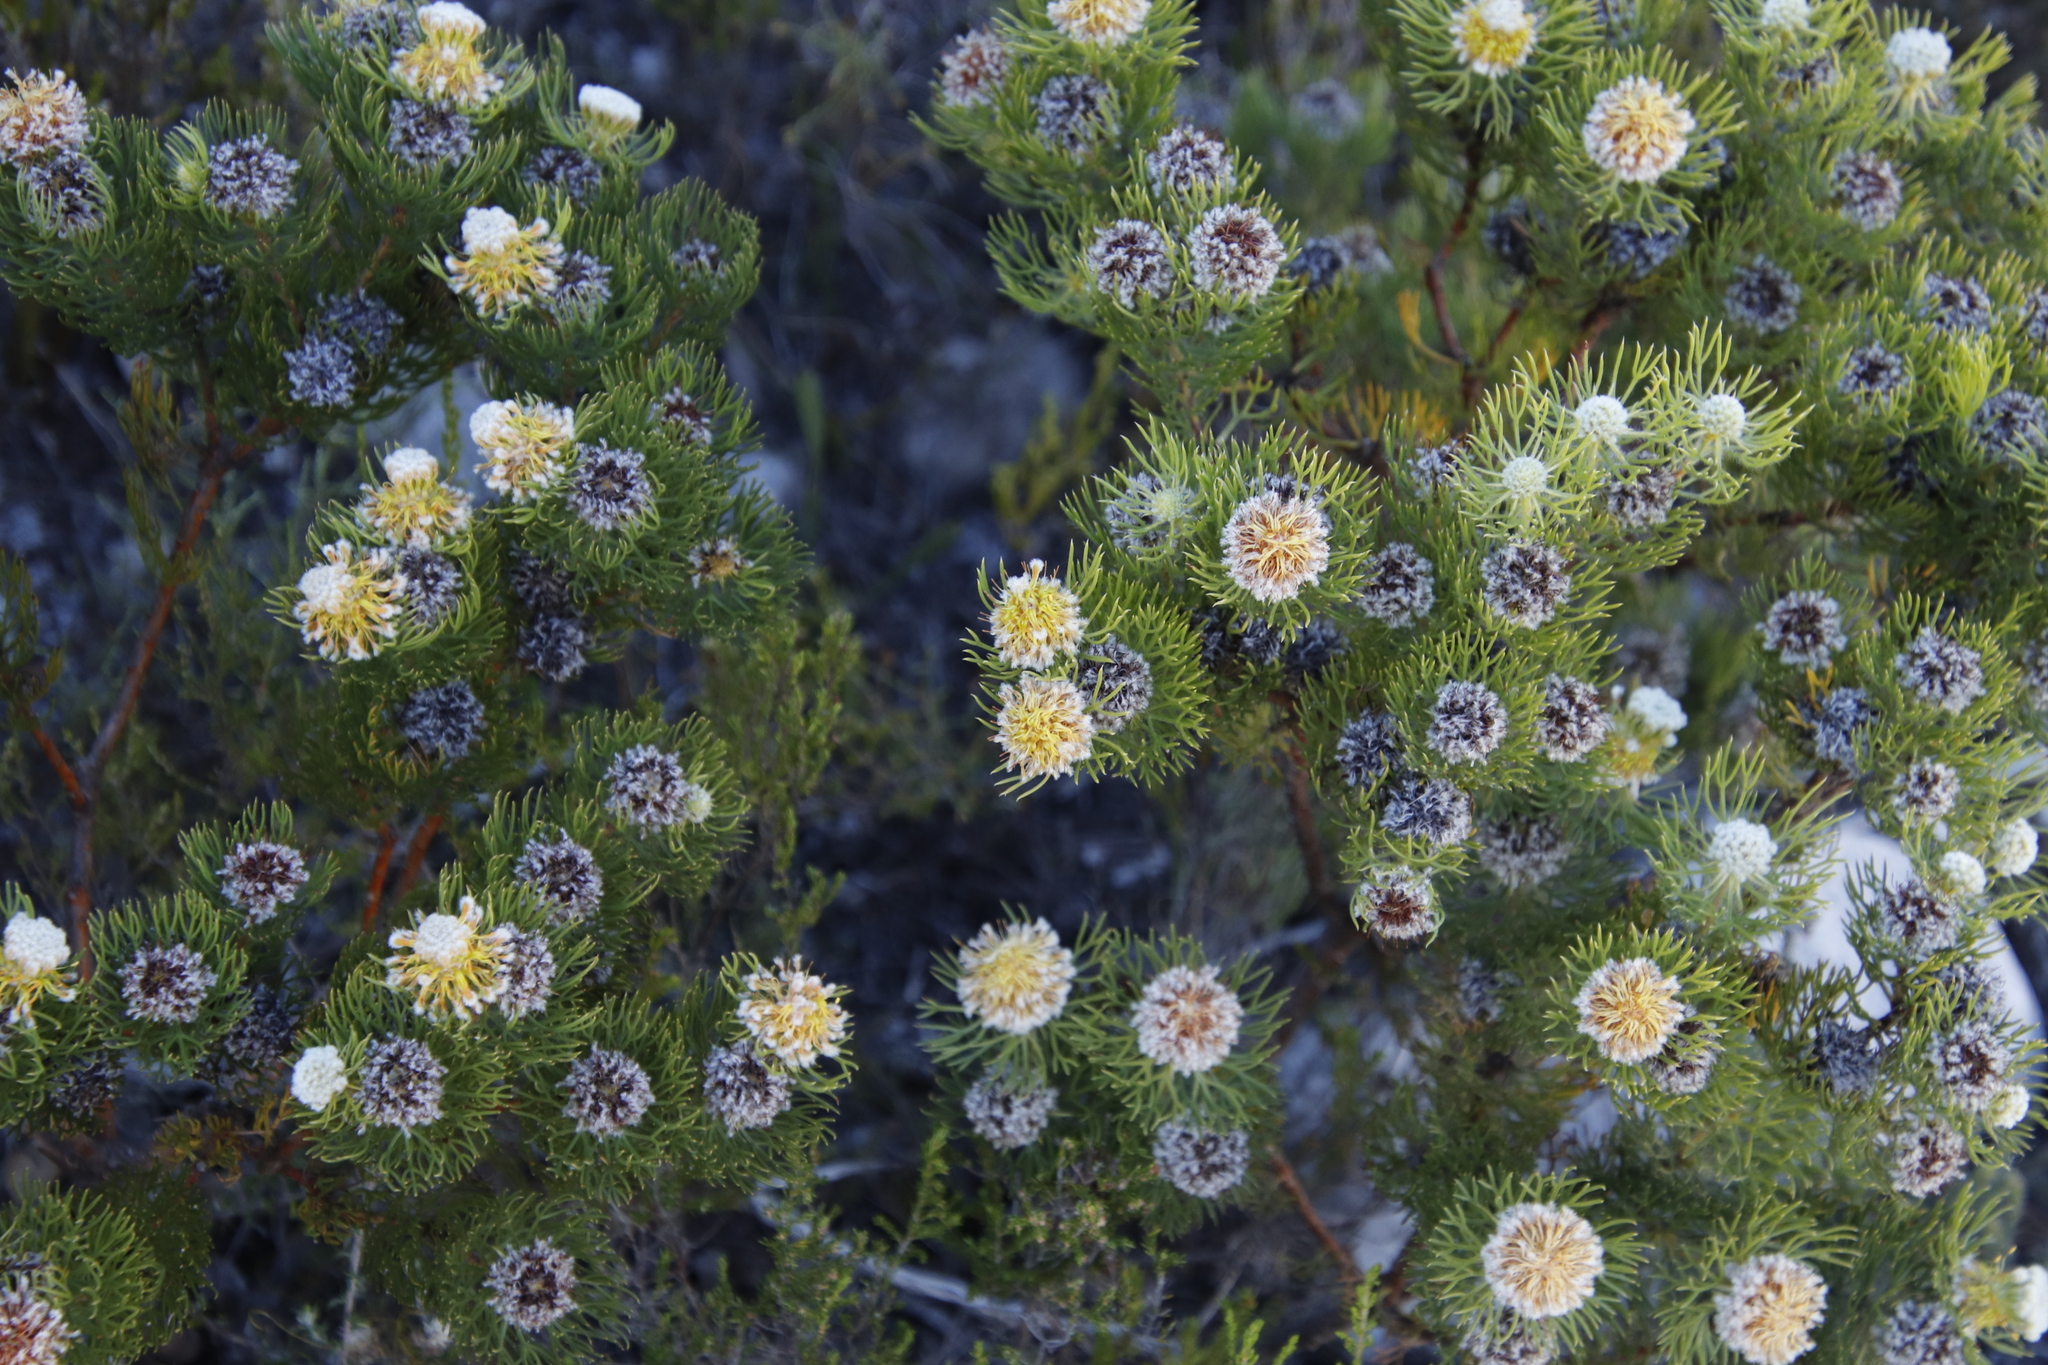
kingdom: Plantae
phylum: Tracheophyta
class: Magnoliopsida
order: Proteales
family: Proteaceae
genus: Serruria
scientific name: Serruria villosa
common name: Golden spiderhead
